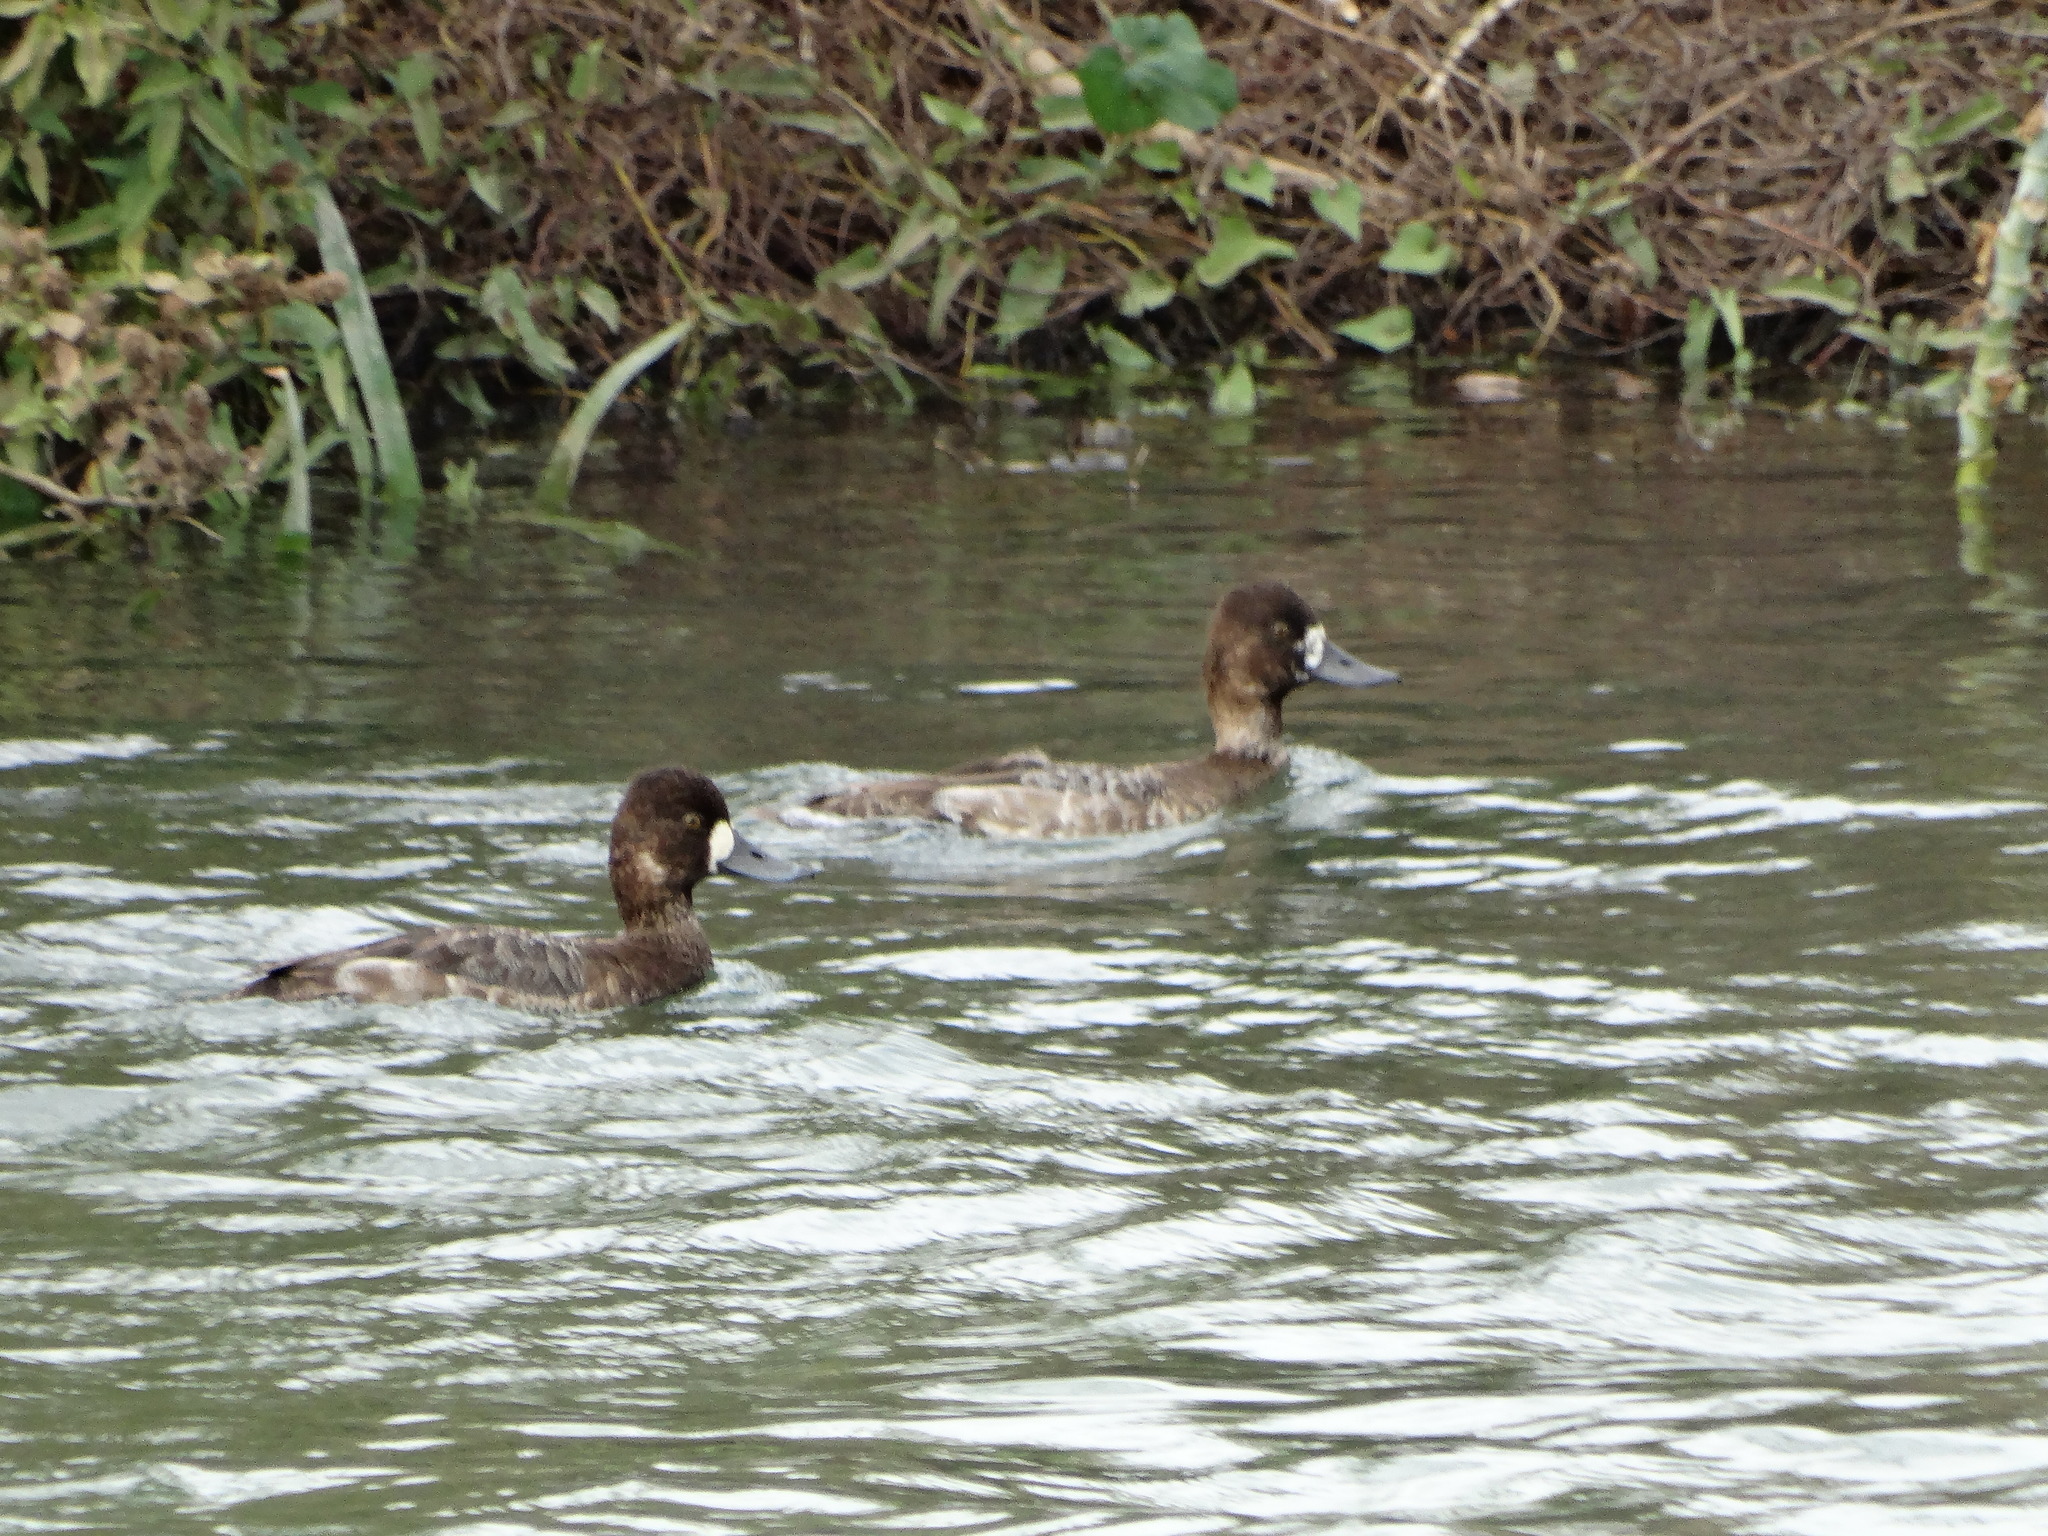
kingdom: Animalia
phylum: Chordata
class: Aves
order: Anseriformes
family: Anatidae
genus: Aythya
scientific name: Aythya affinis
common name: Lesser scaup
